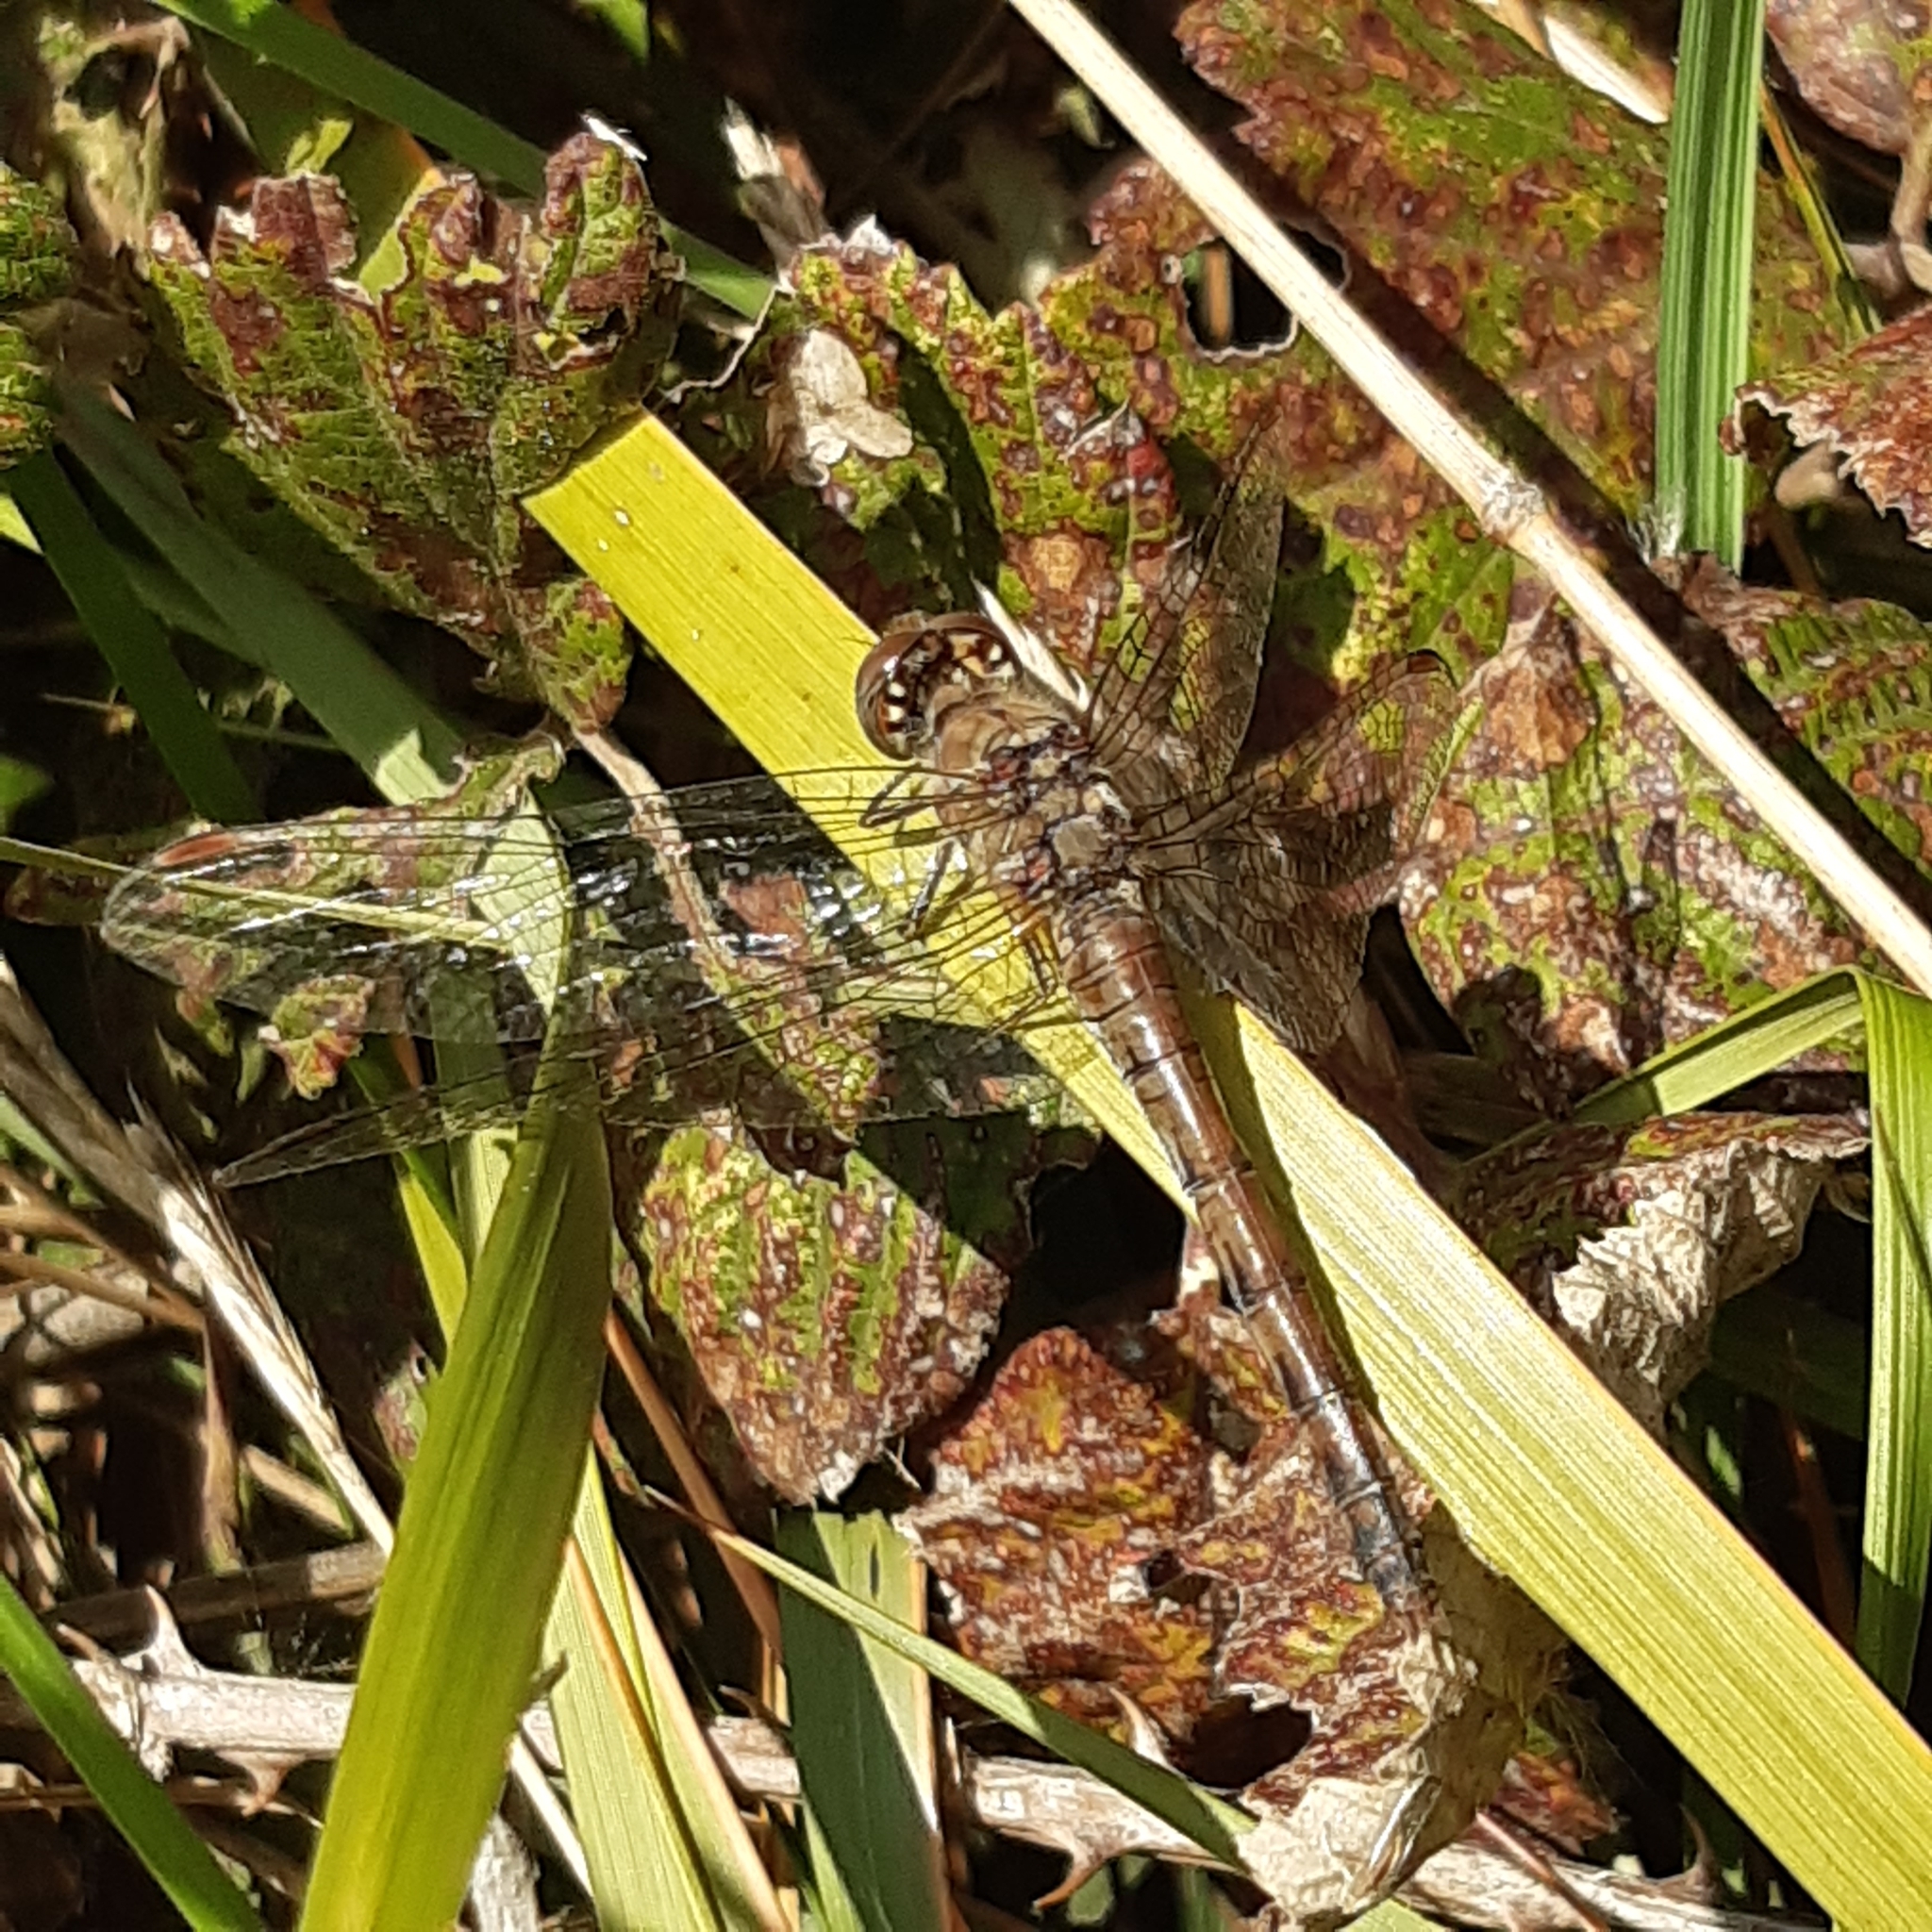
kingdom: Animalia
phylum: Arthropoda
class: Insecta
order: Odonata
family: Libellulidae
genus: Sympetrum
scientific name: Sympetrum striolatum
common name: Common darter
